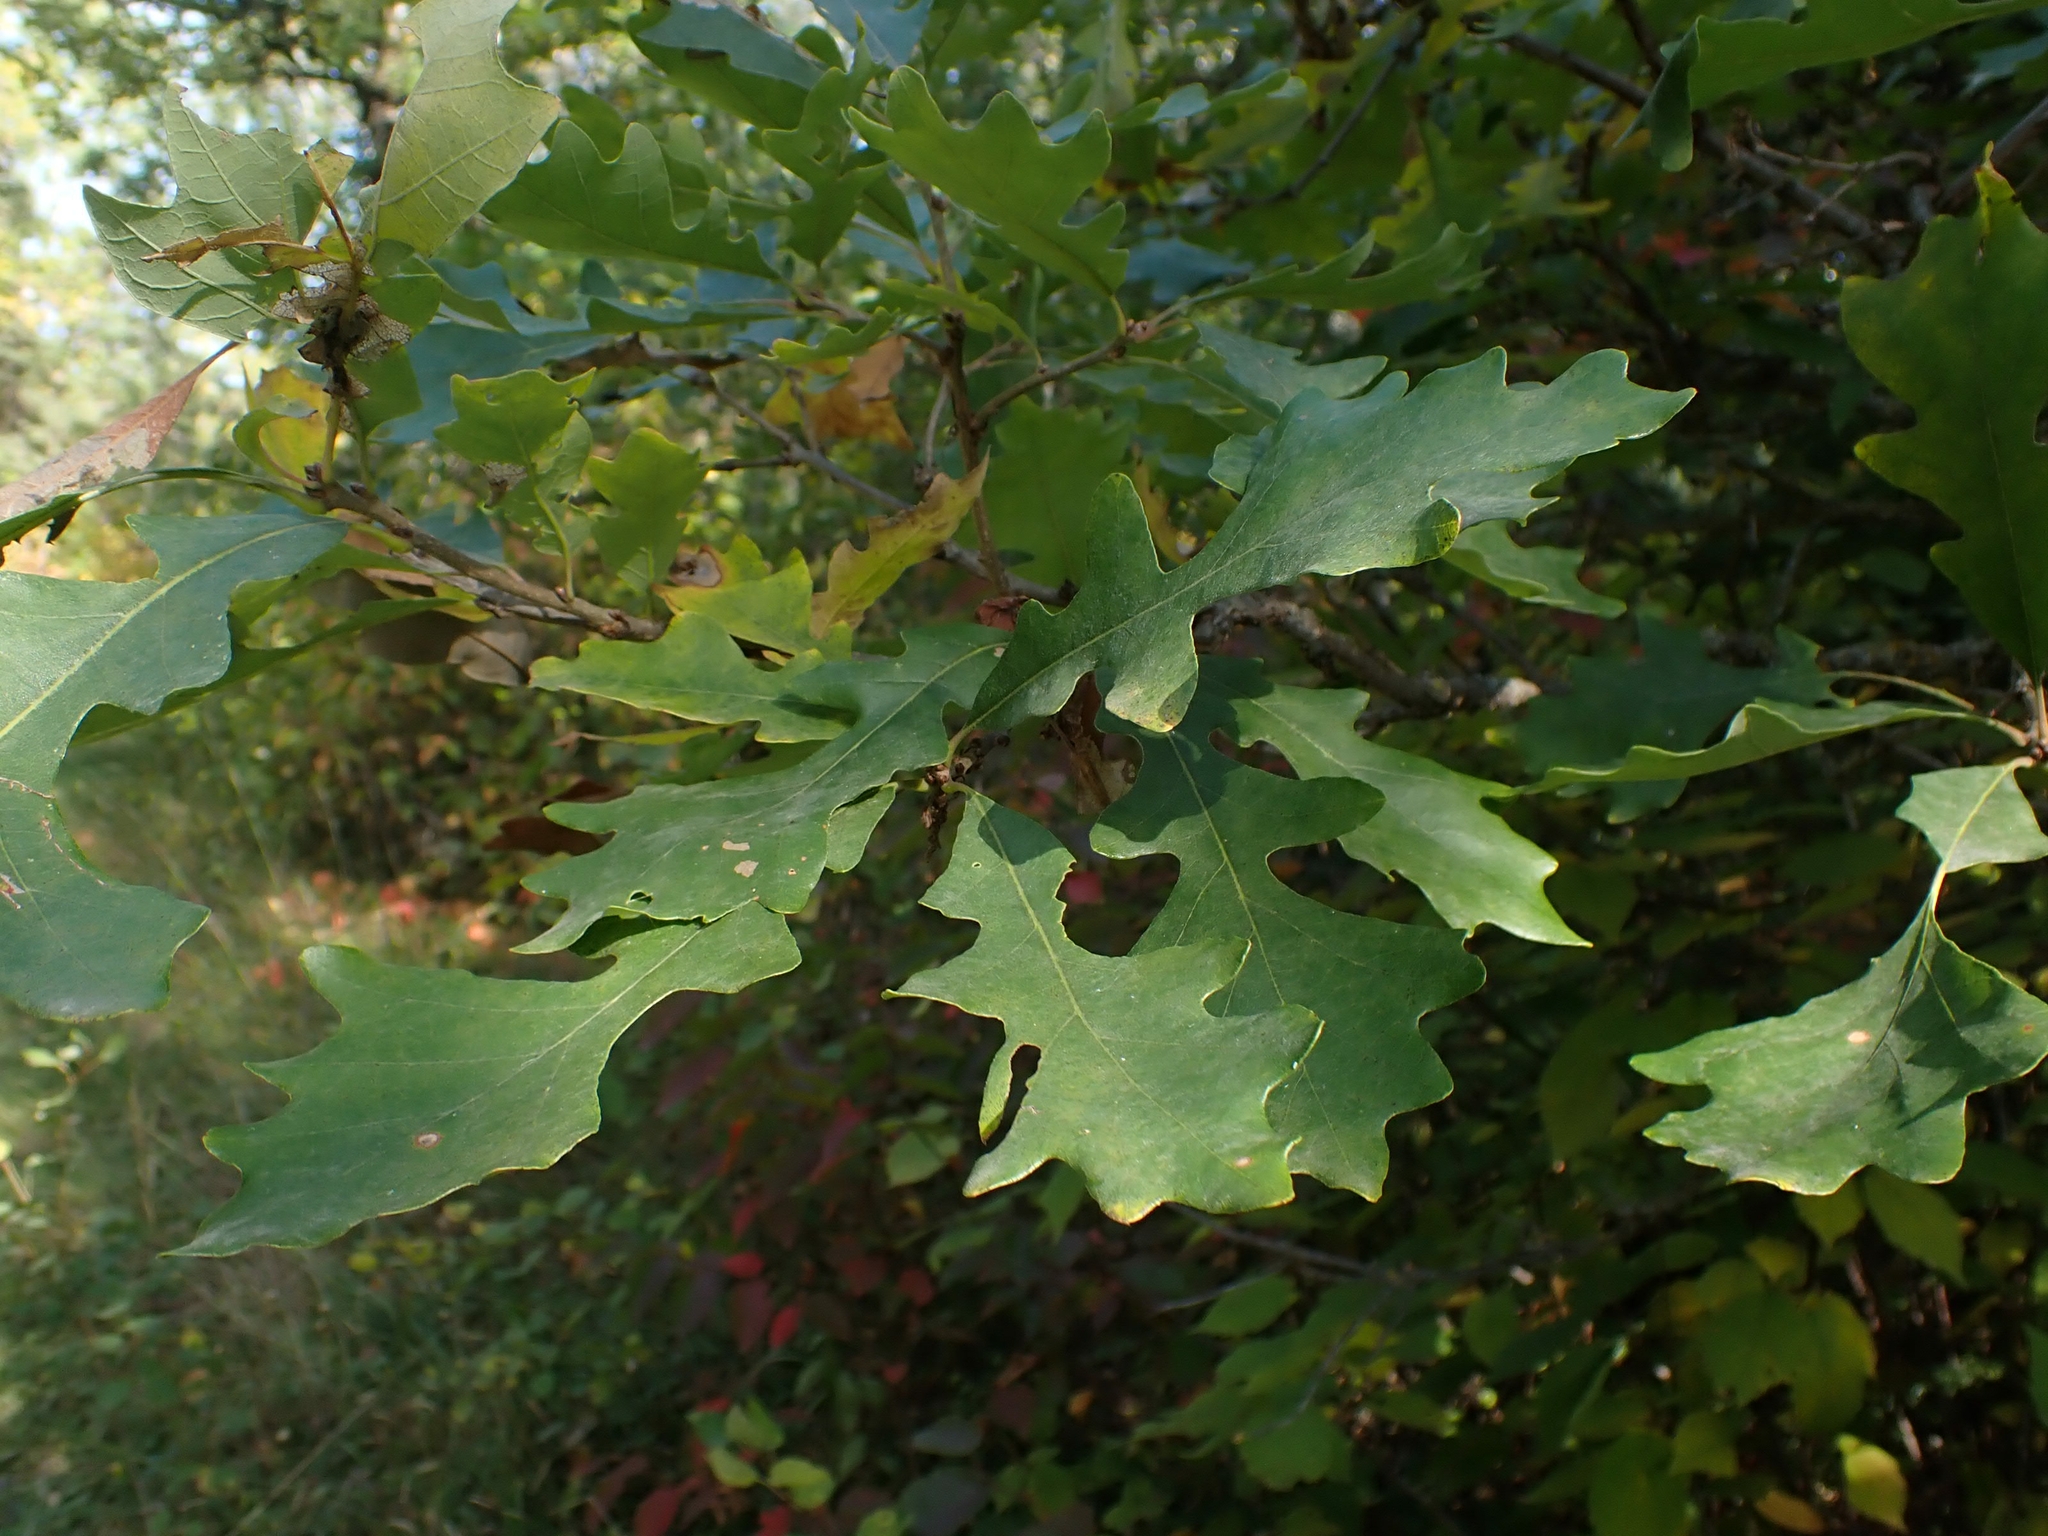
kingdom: Plantae
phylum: Tracheophyta
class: Magnoliopsida
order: Fagales
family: Fagaceae
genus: Quercus
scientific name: Quercus macrocarpa
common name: Bur oak
